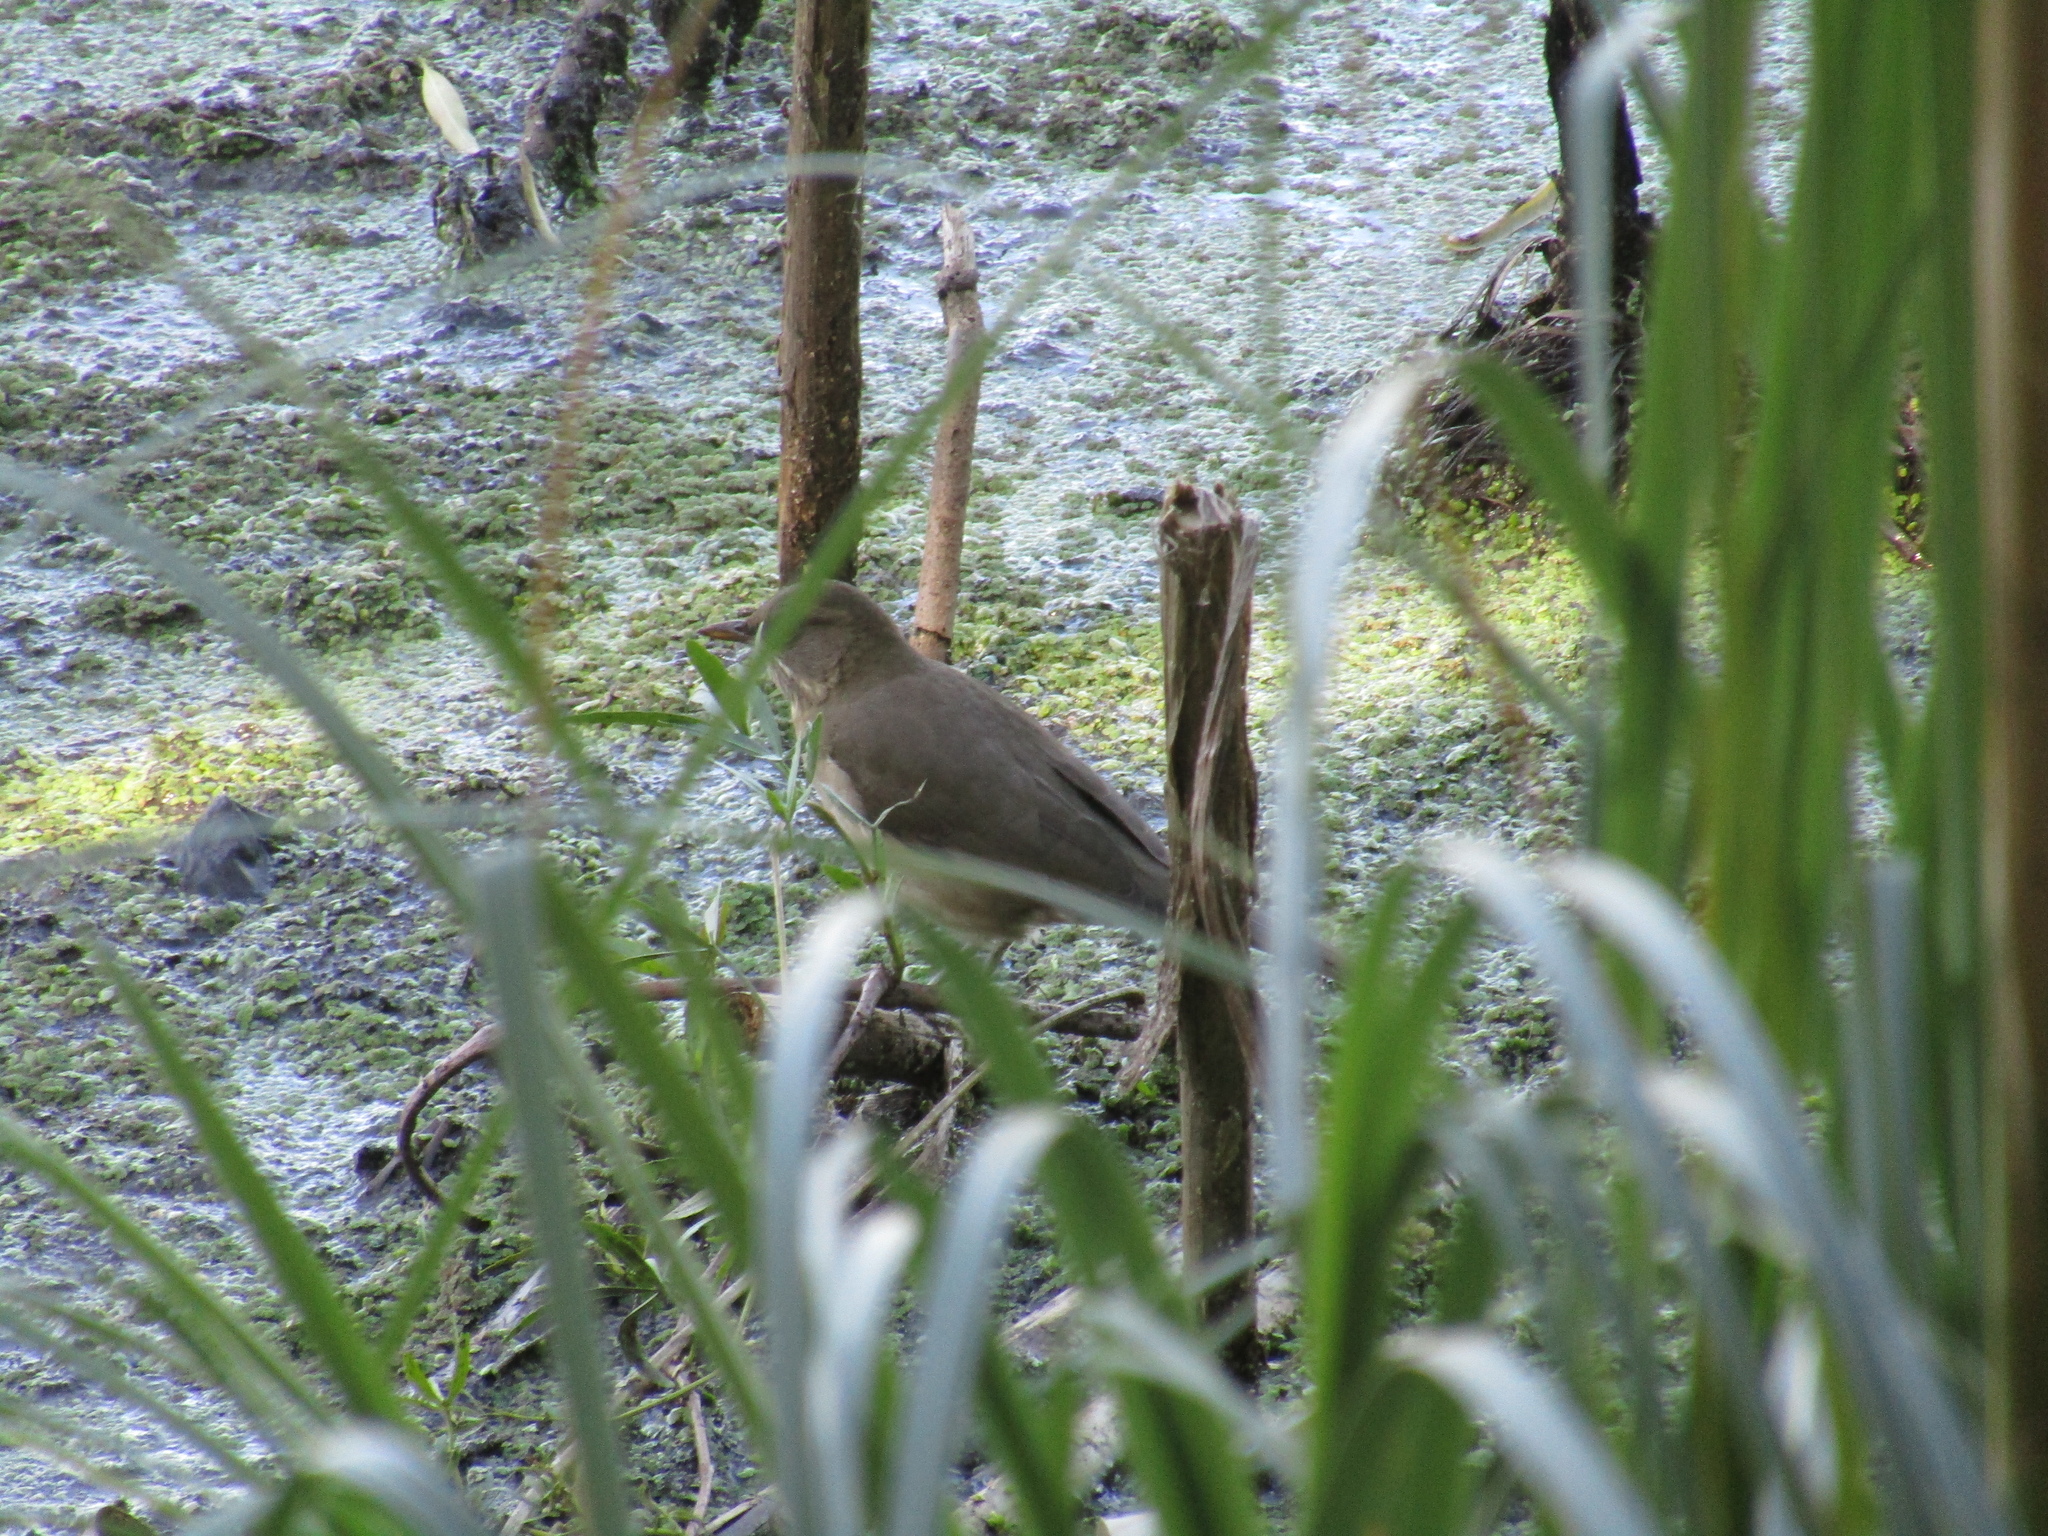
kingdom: Animalia
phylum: Chordata
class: Aves
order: Passeriformes
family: Turdidae
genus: Turdus
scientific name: Turdus amaurochalinus
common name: Creamy-bellied thrush
